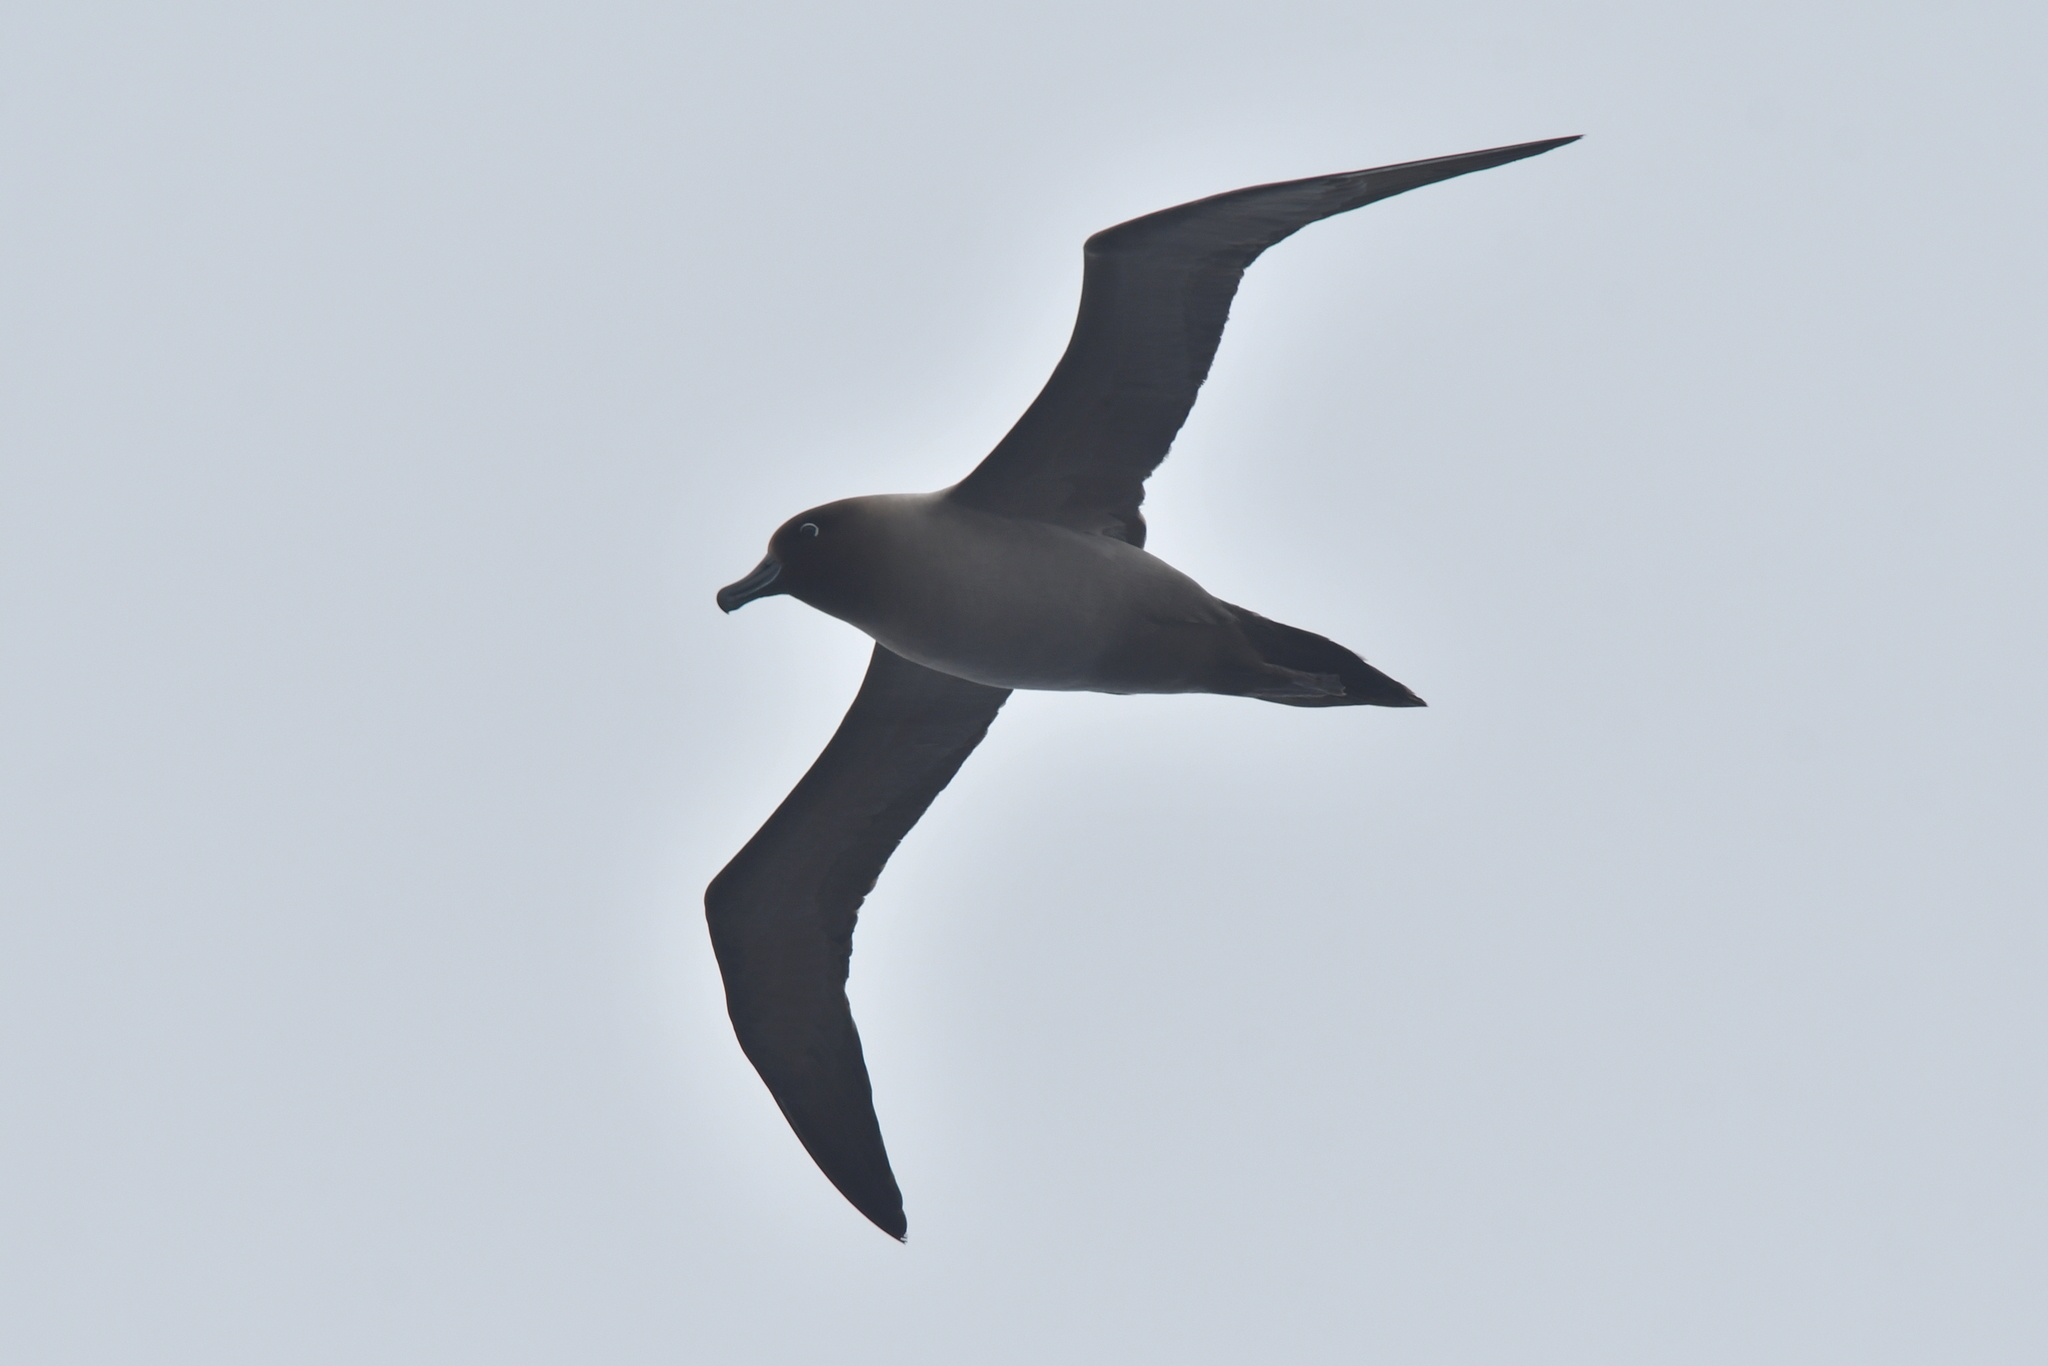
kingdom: Animalia
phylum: Chordata
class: Aves
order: Procellariiformes
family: Diomedeidae
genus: Phoebetria
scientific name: Phoebetria palpebrata
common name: Light-mantled albatross
